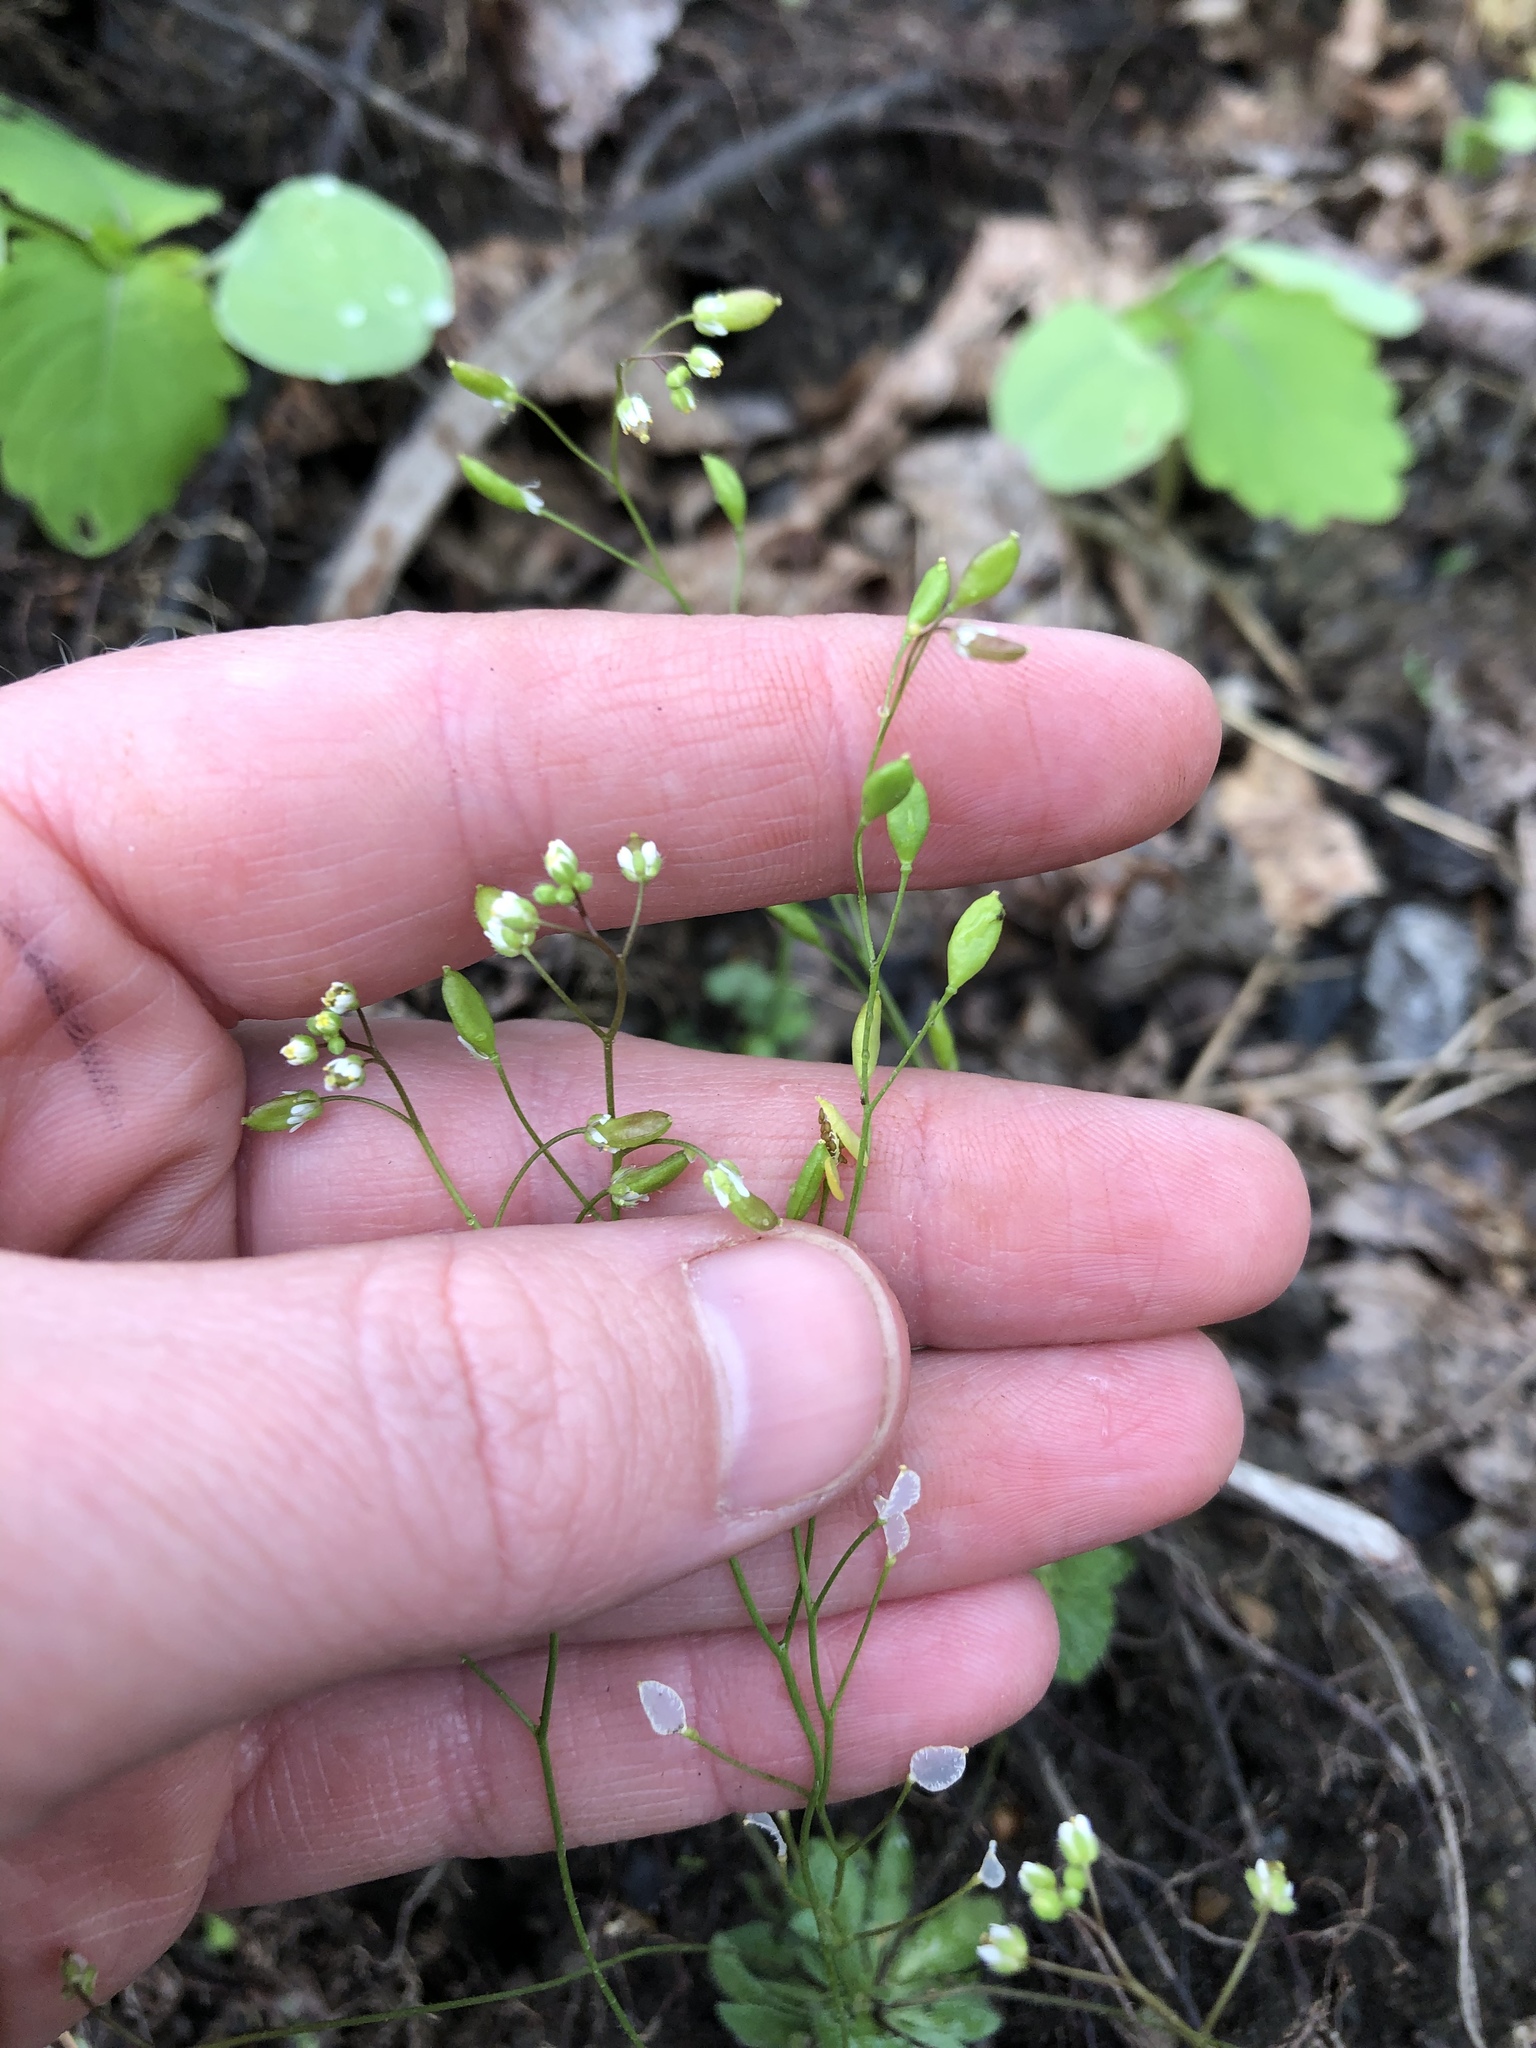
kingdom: Plantae
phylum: Tracheophyta
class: Magnoliopsida
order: Brassicales
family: Brassicaceae
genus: Draba
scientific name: Draba verna
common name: Spring draba
